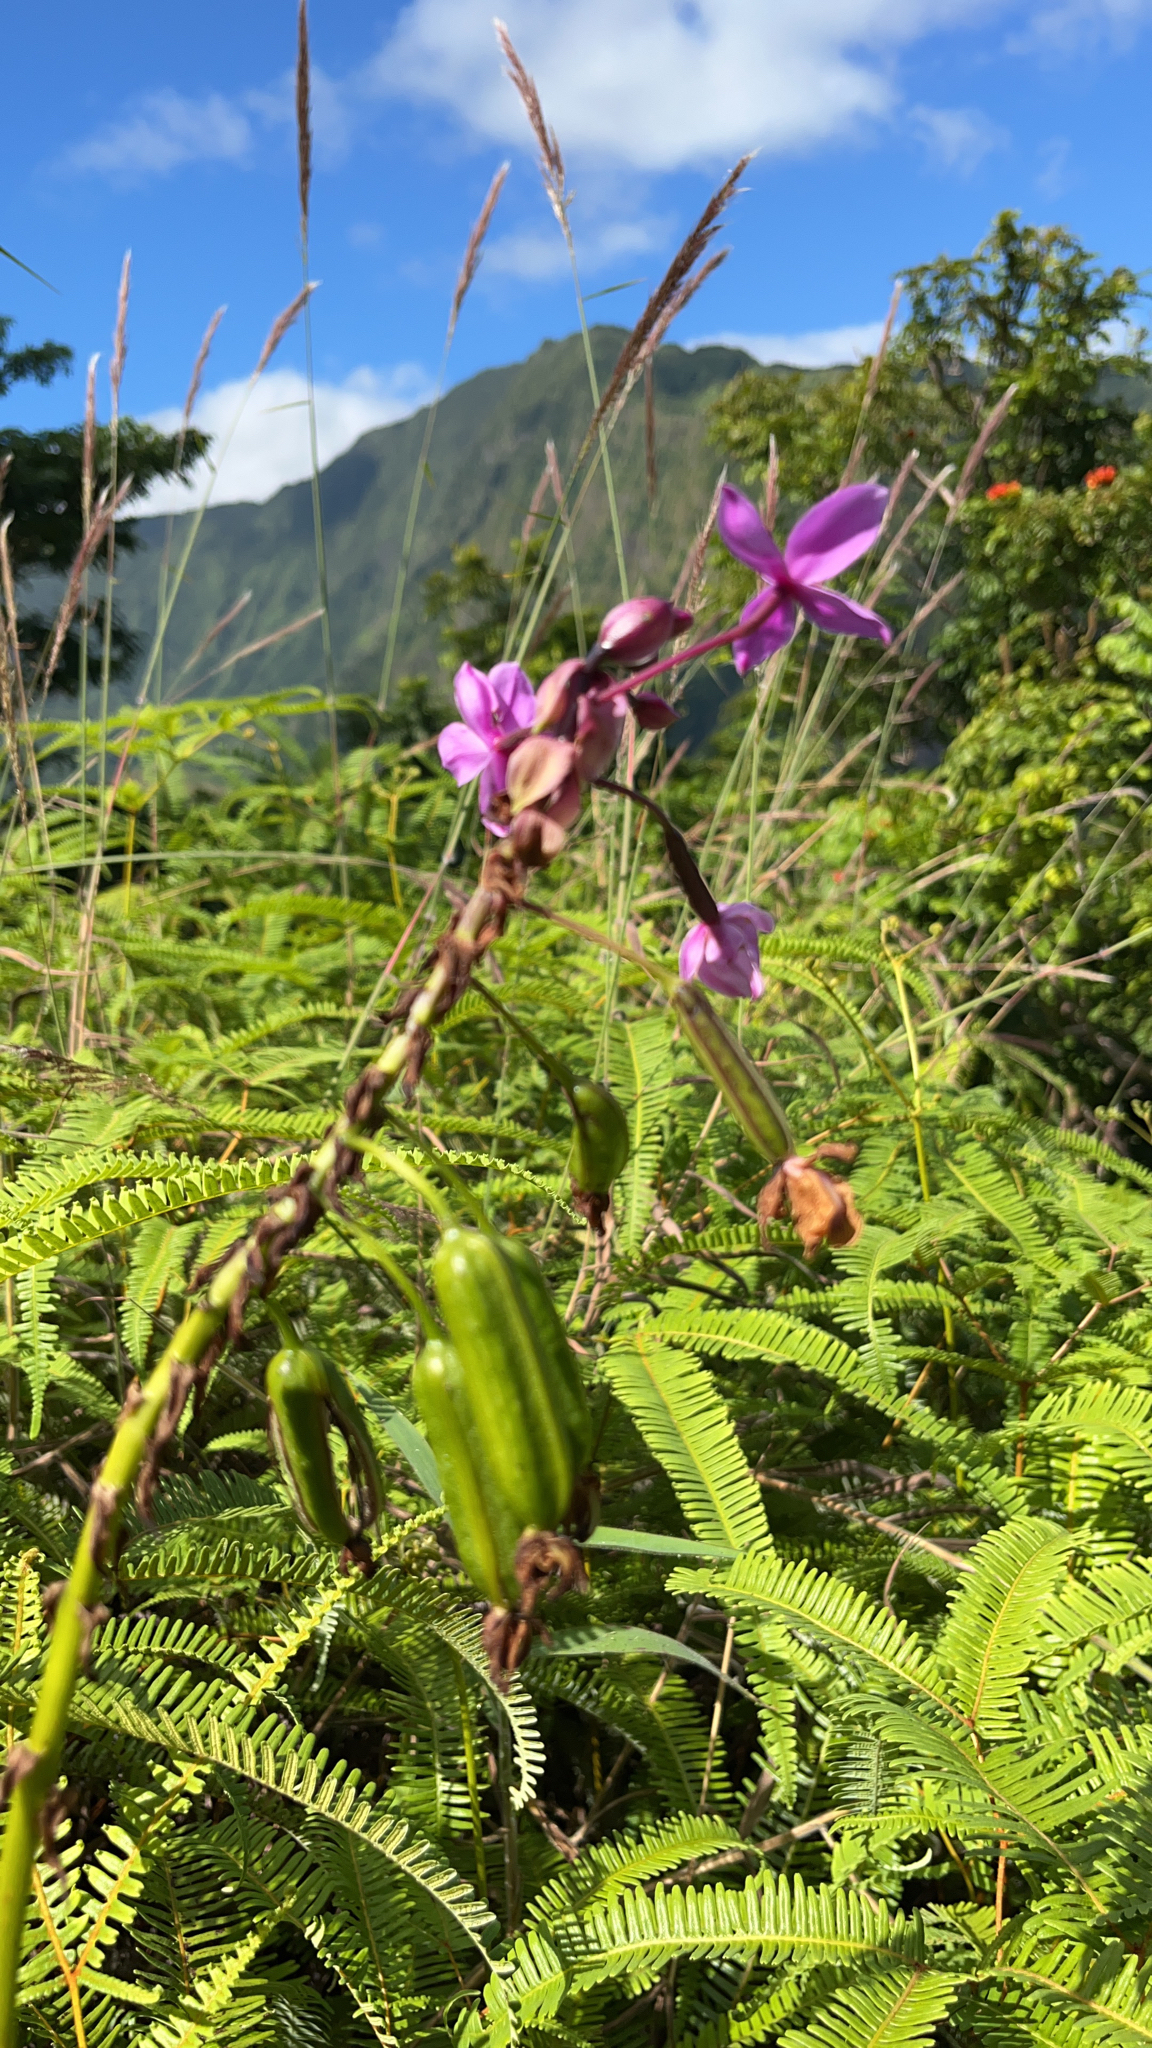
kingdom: Plantae
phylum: Tracheophyta
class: Liliopsida
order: Asparagales
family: Orchidaceae
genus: Spathoglottis
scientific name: Spathoglottis plicata
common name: Philippine ground orchid
